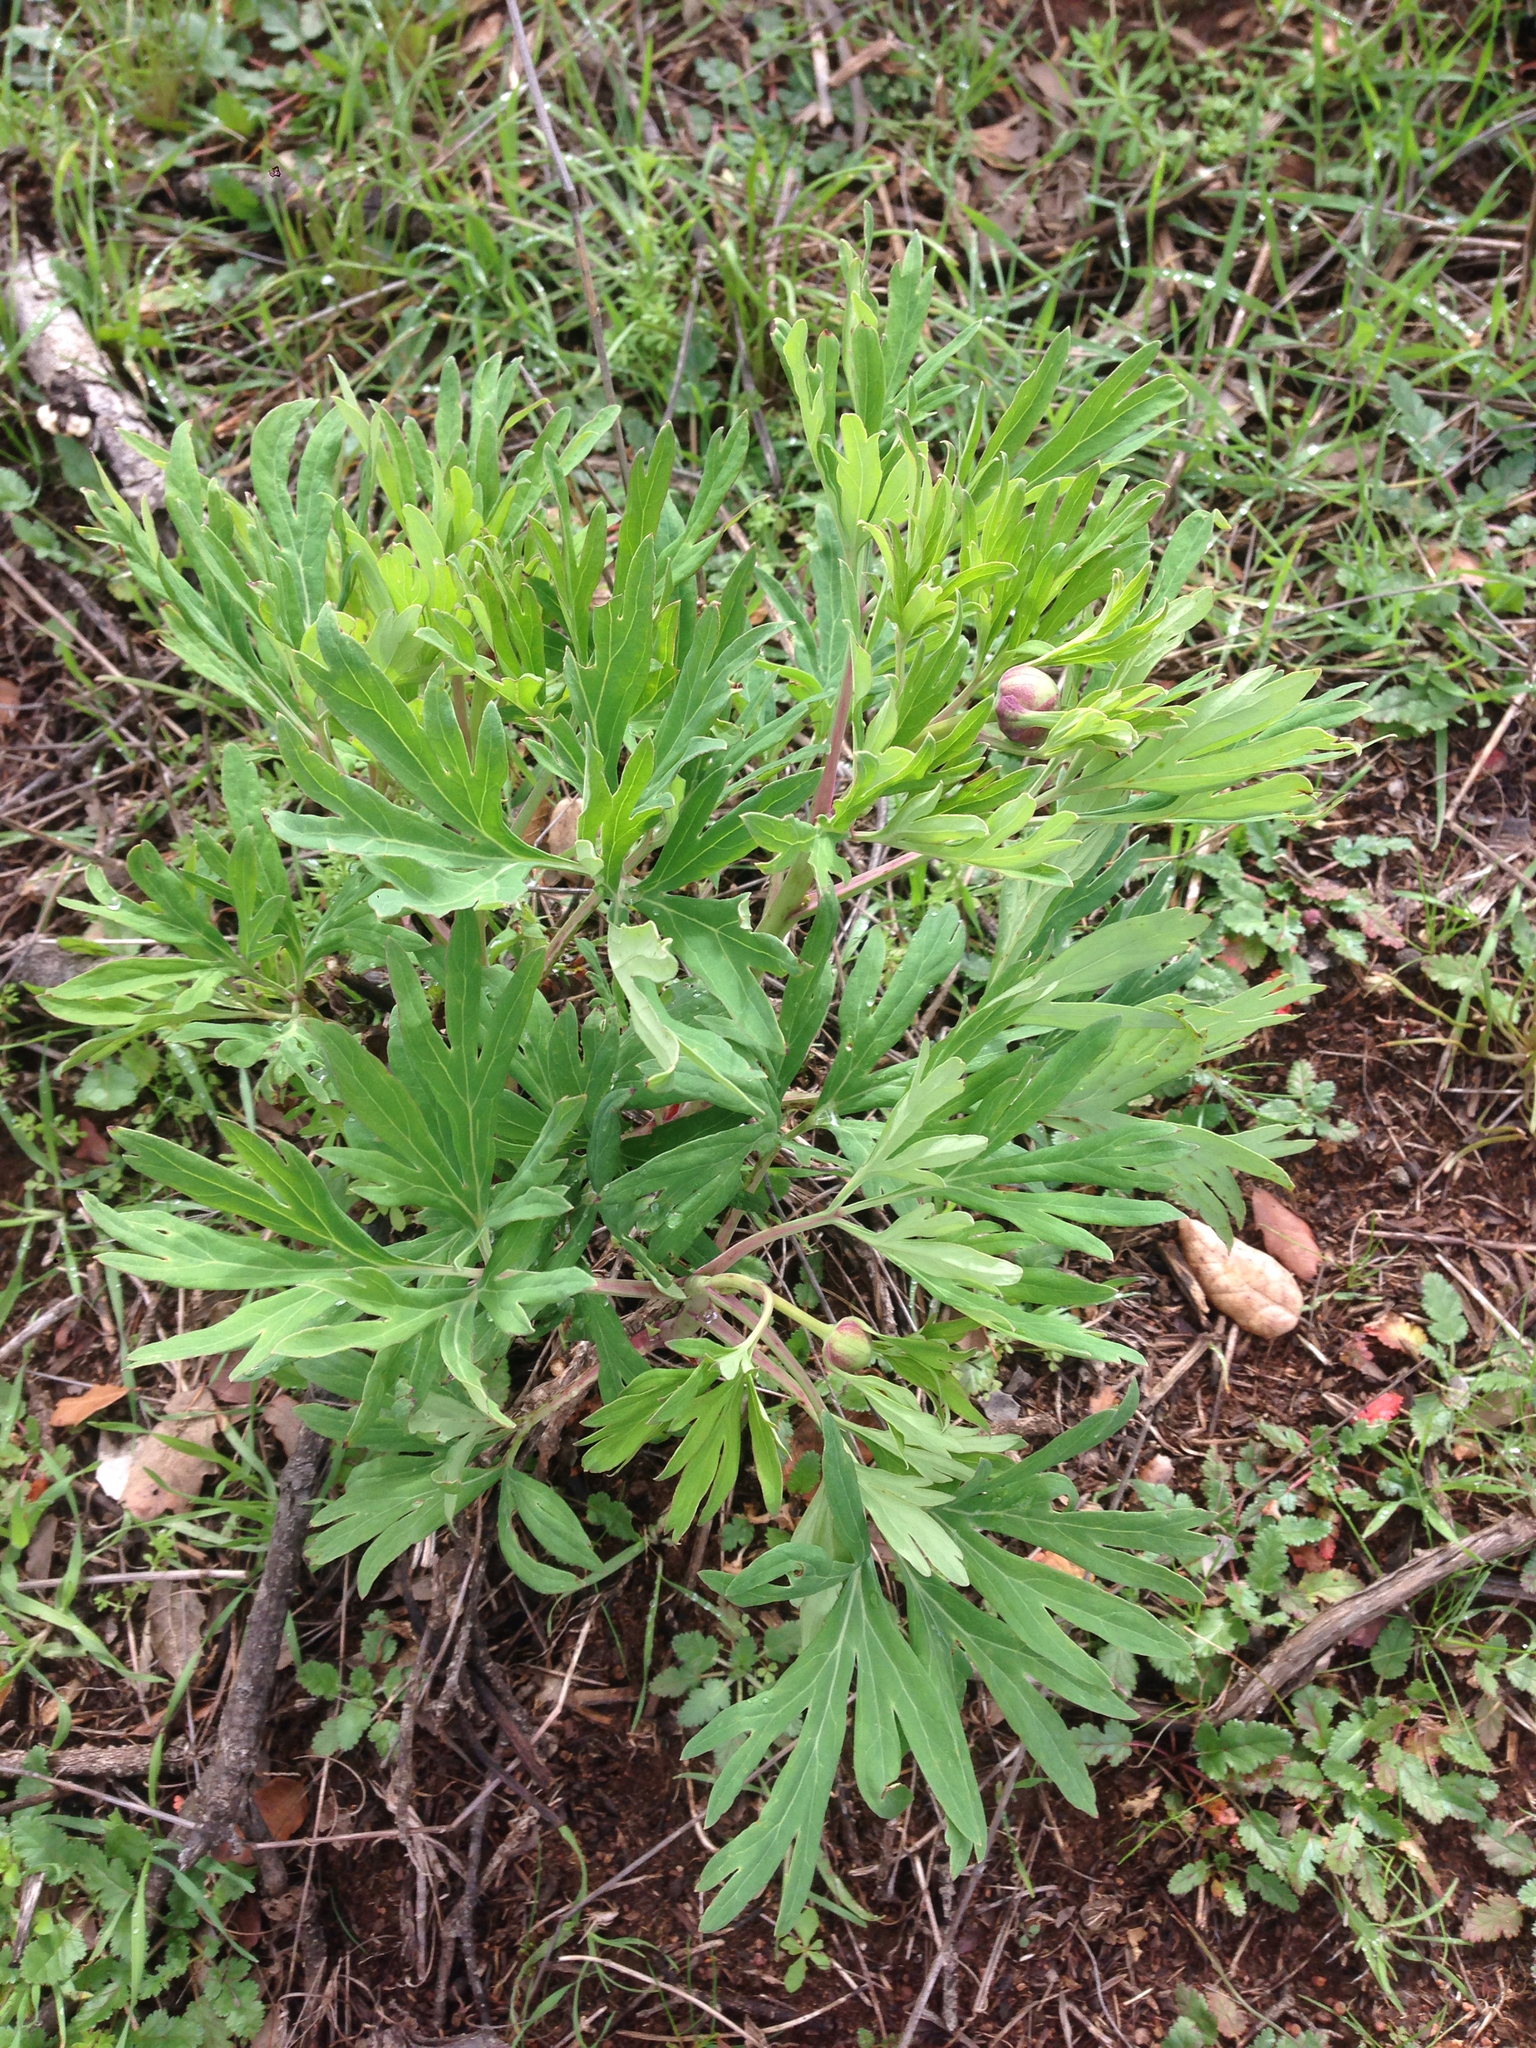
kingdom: Plantae
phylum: Tracheophyta
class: Magnoliopsida
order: Saxifragales
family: Paeoniaceae
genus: Paeonia
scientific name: Paeonia californica
